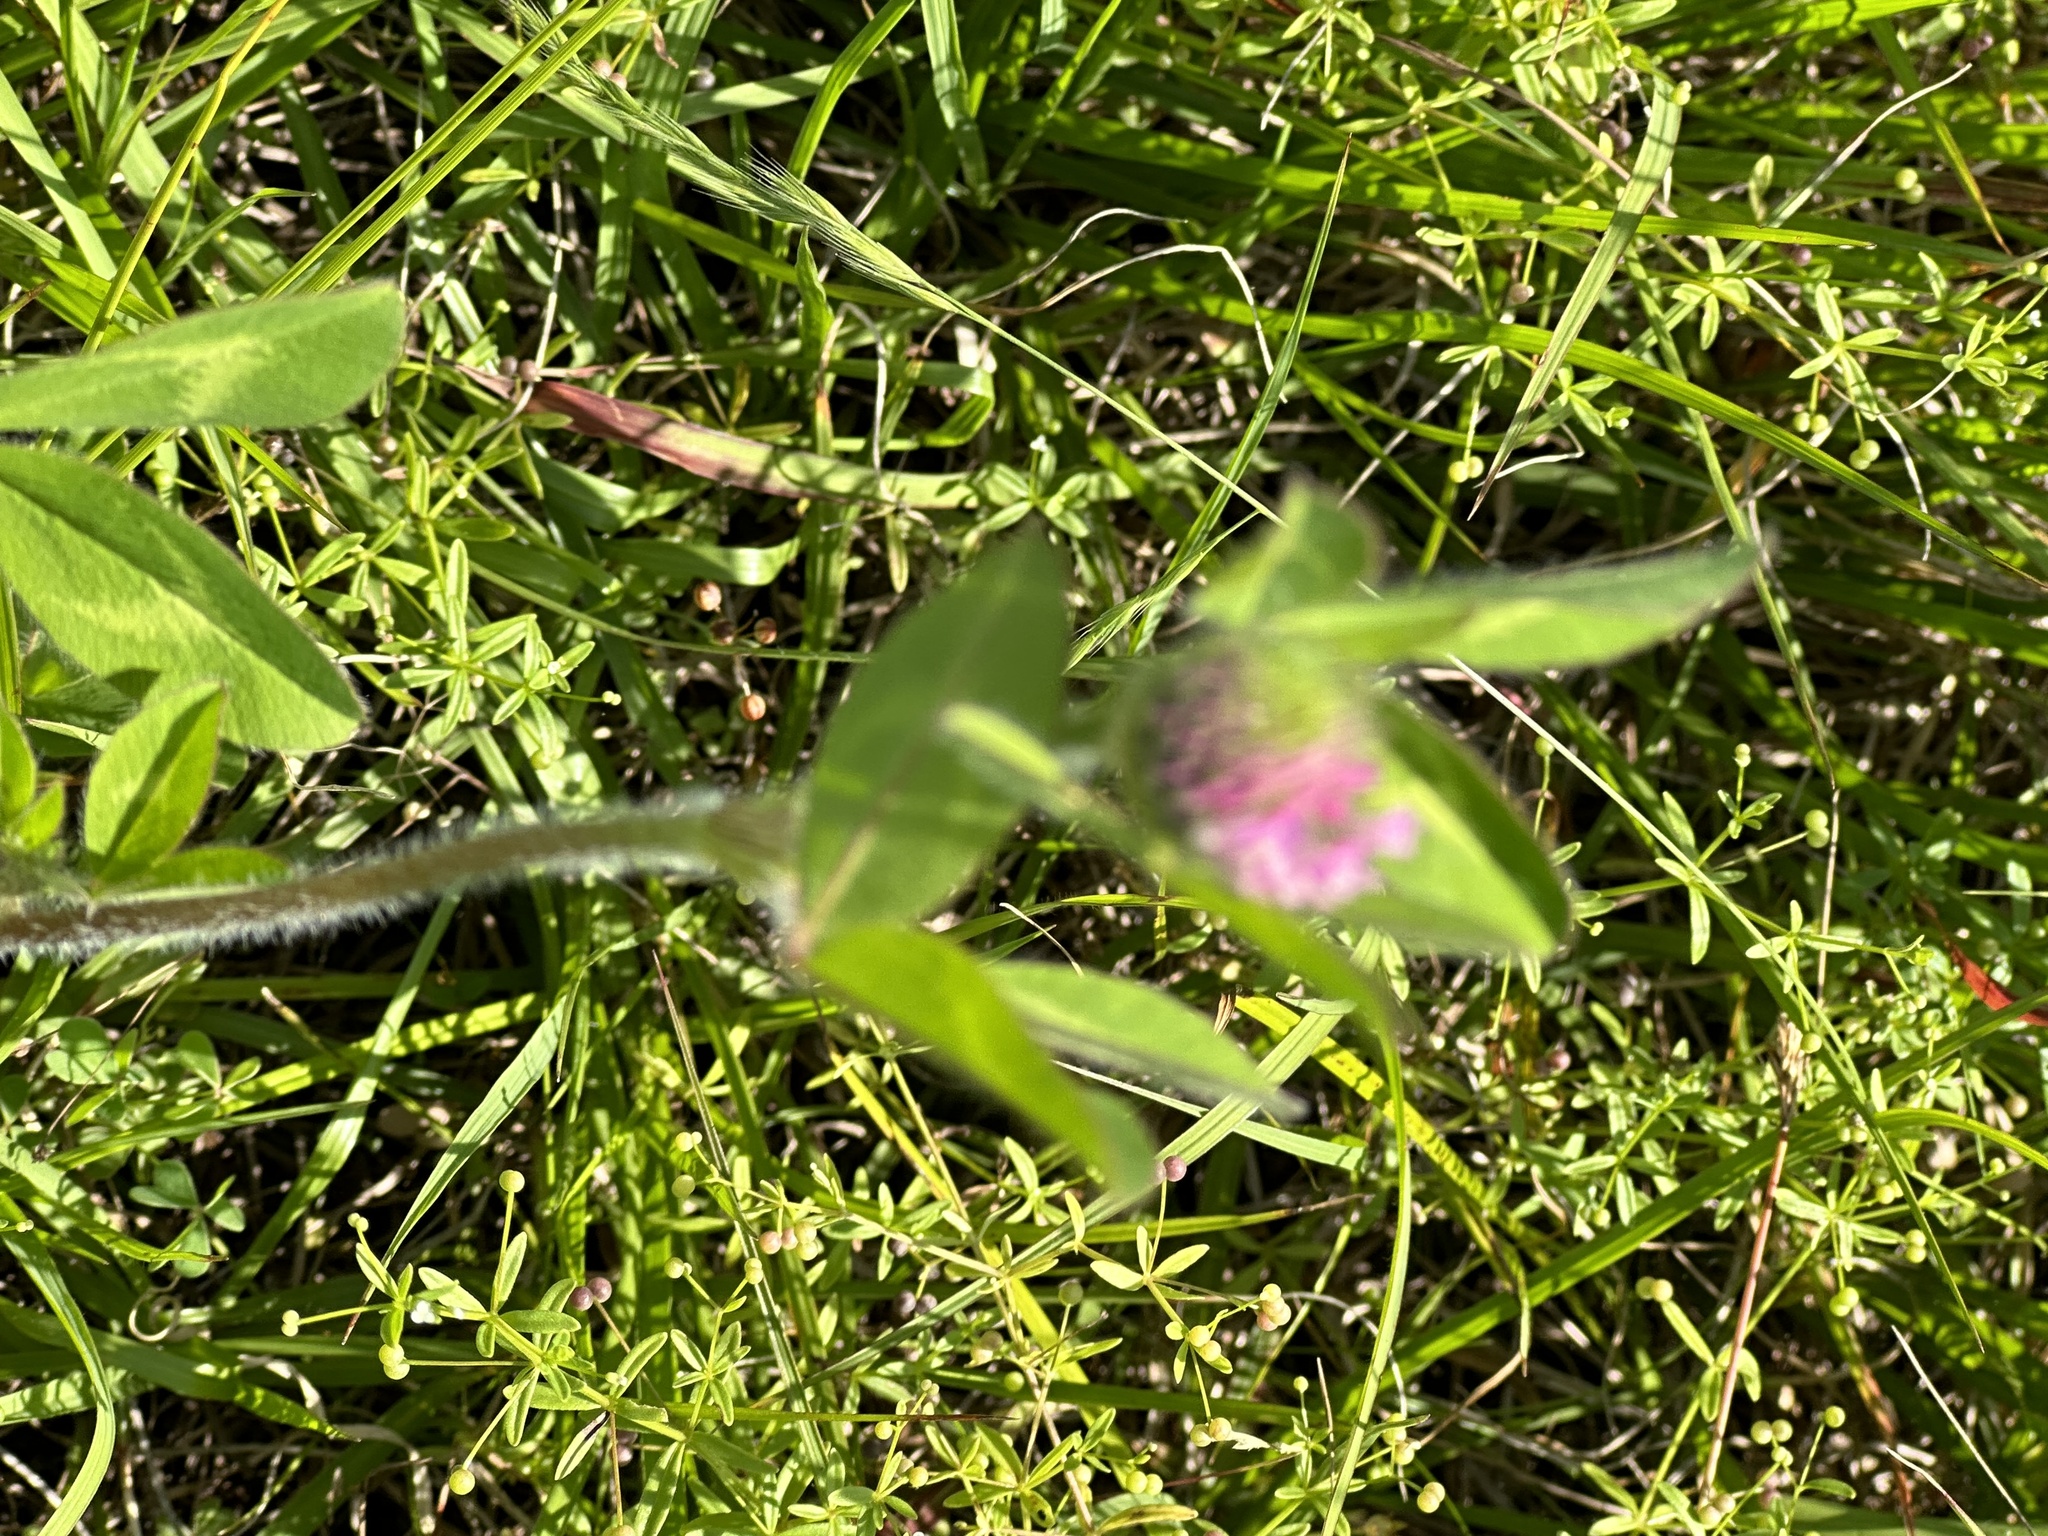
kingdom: Plantae
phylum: Tracheophyta
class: Magnoliopsida
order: Fabales
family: Fabaceae
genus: Trifolium
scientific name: Trifolium pratense
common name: Red clover
